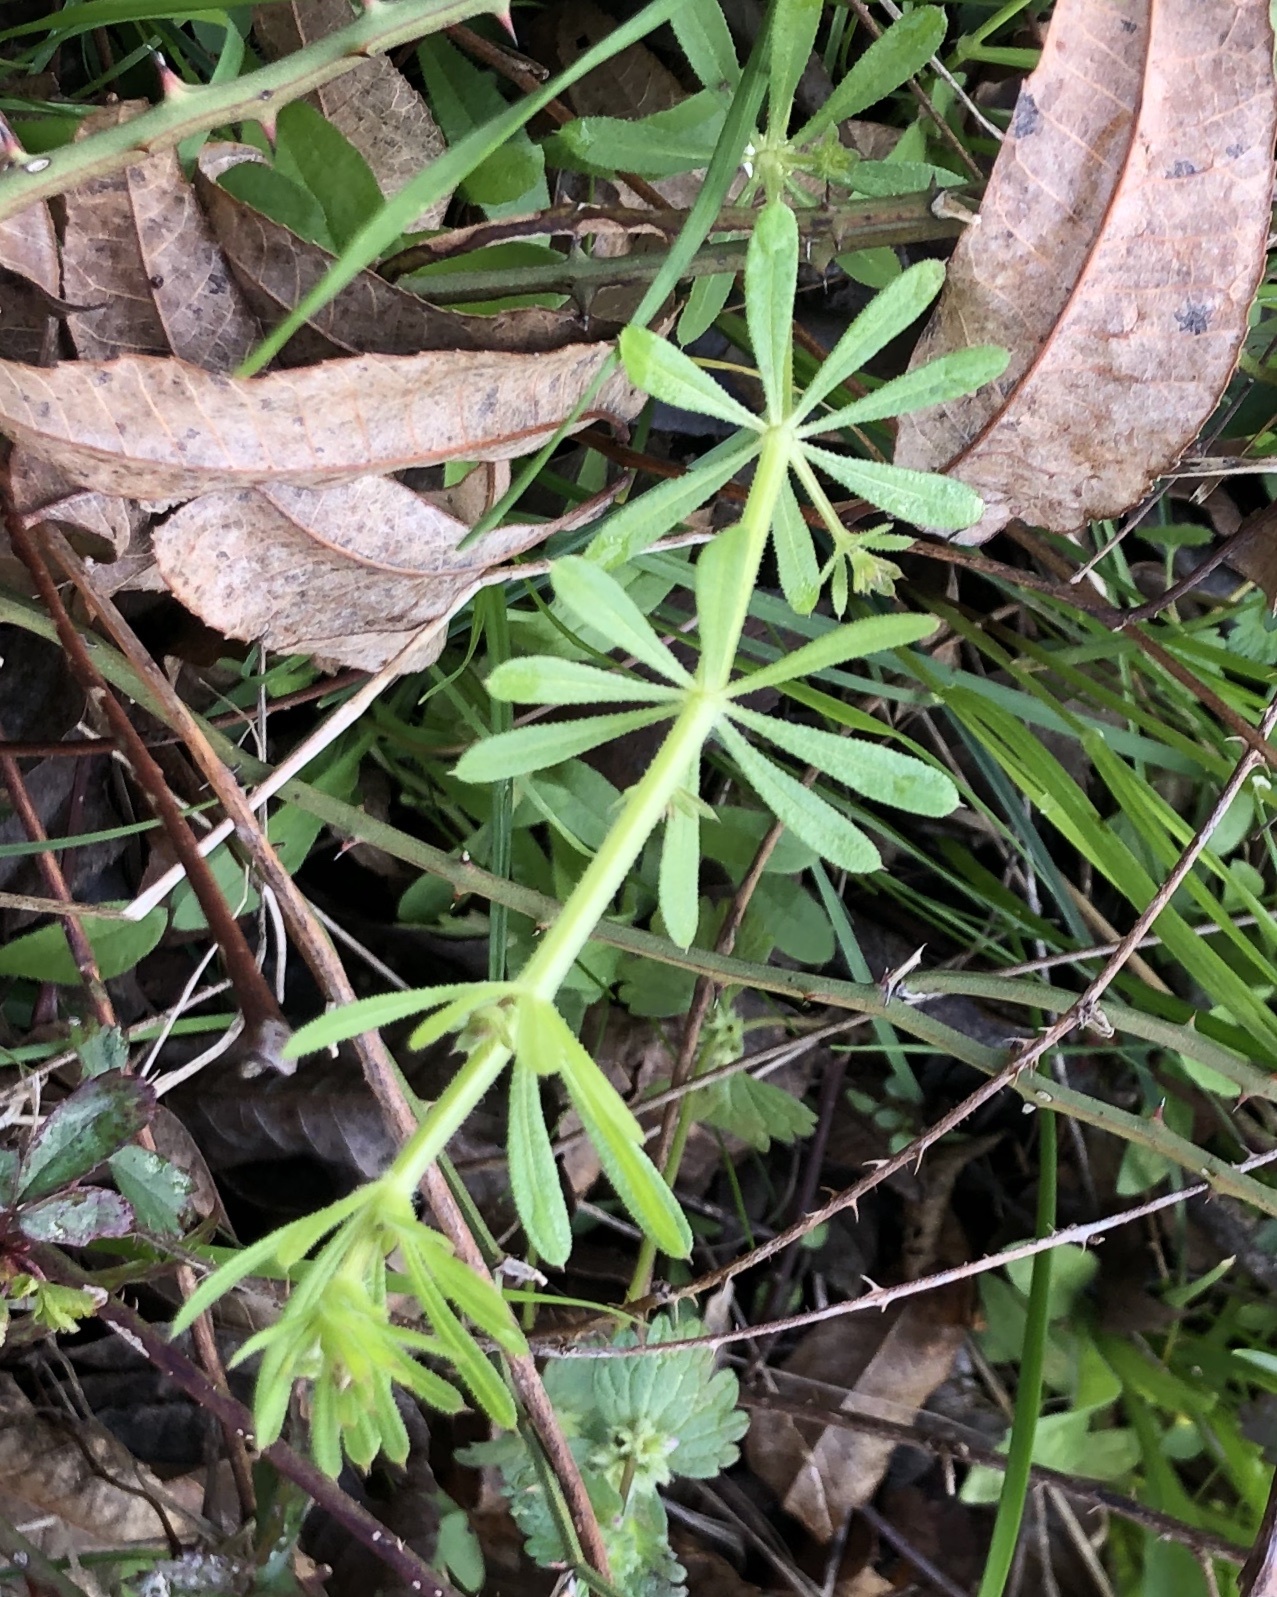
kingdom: Plantae
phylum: Tracheophyta
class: Magnoliopsida
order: Gentianales
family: Rubiaceae
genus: Galium
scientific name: Galium aparine
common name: Cleavers
